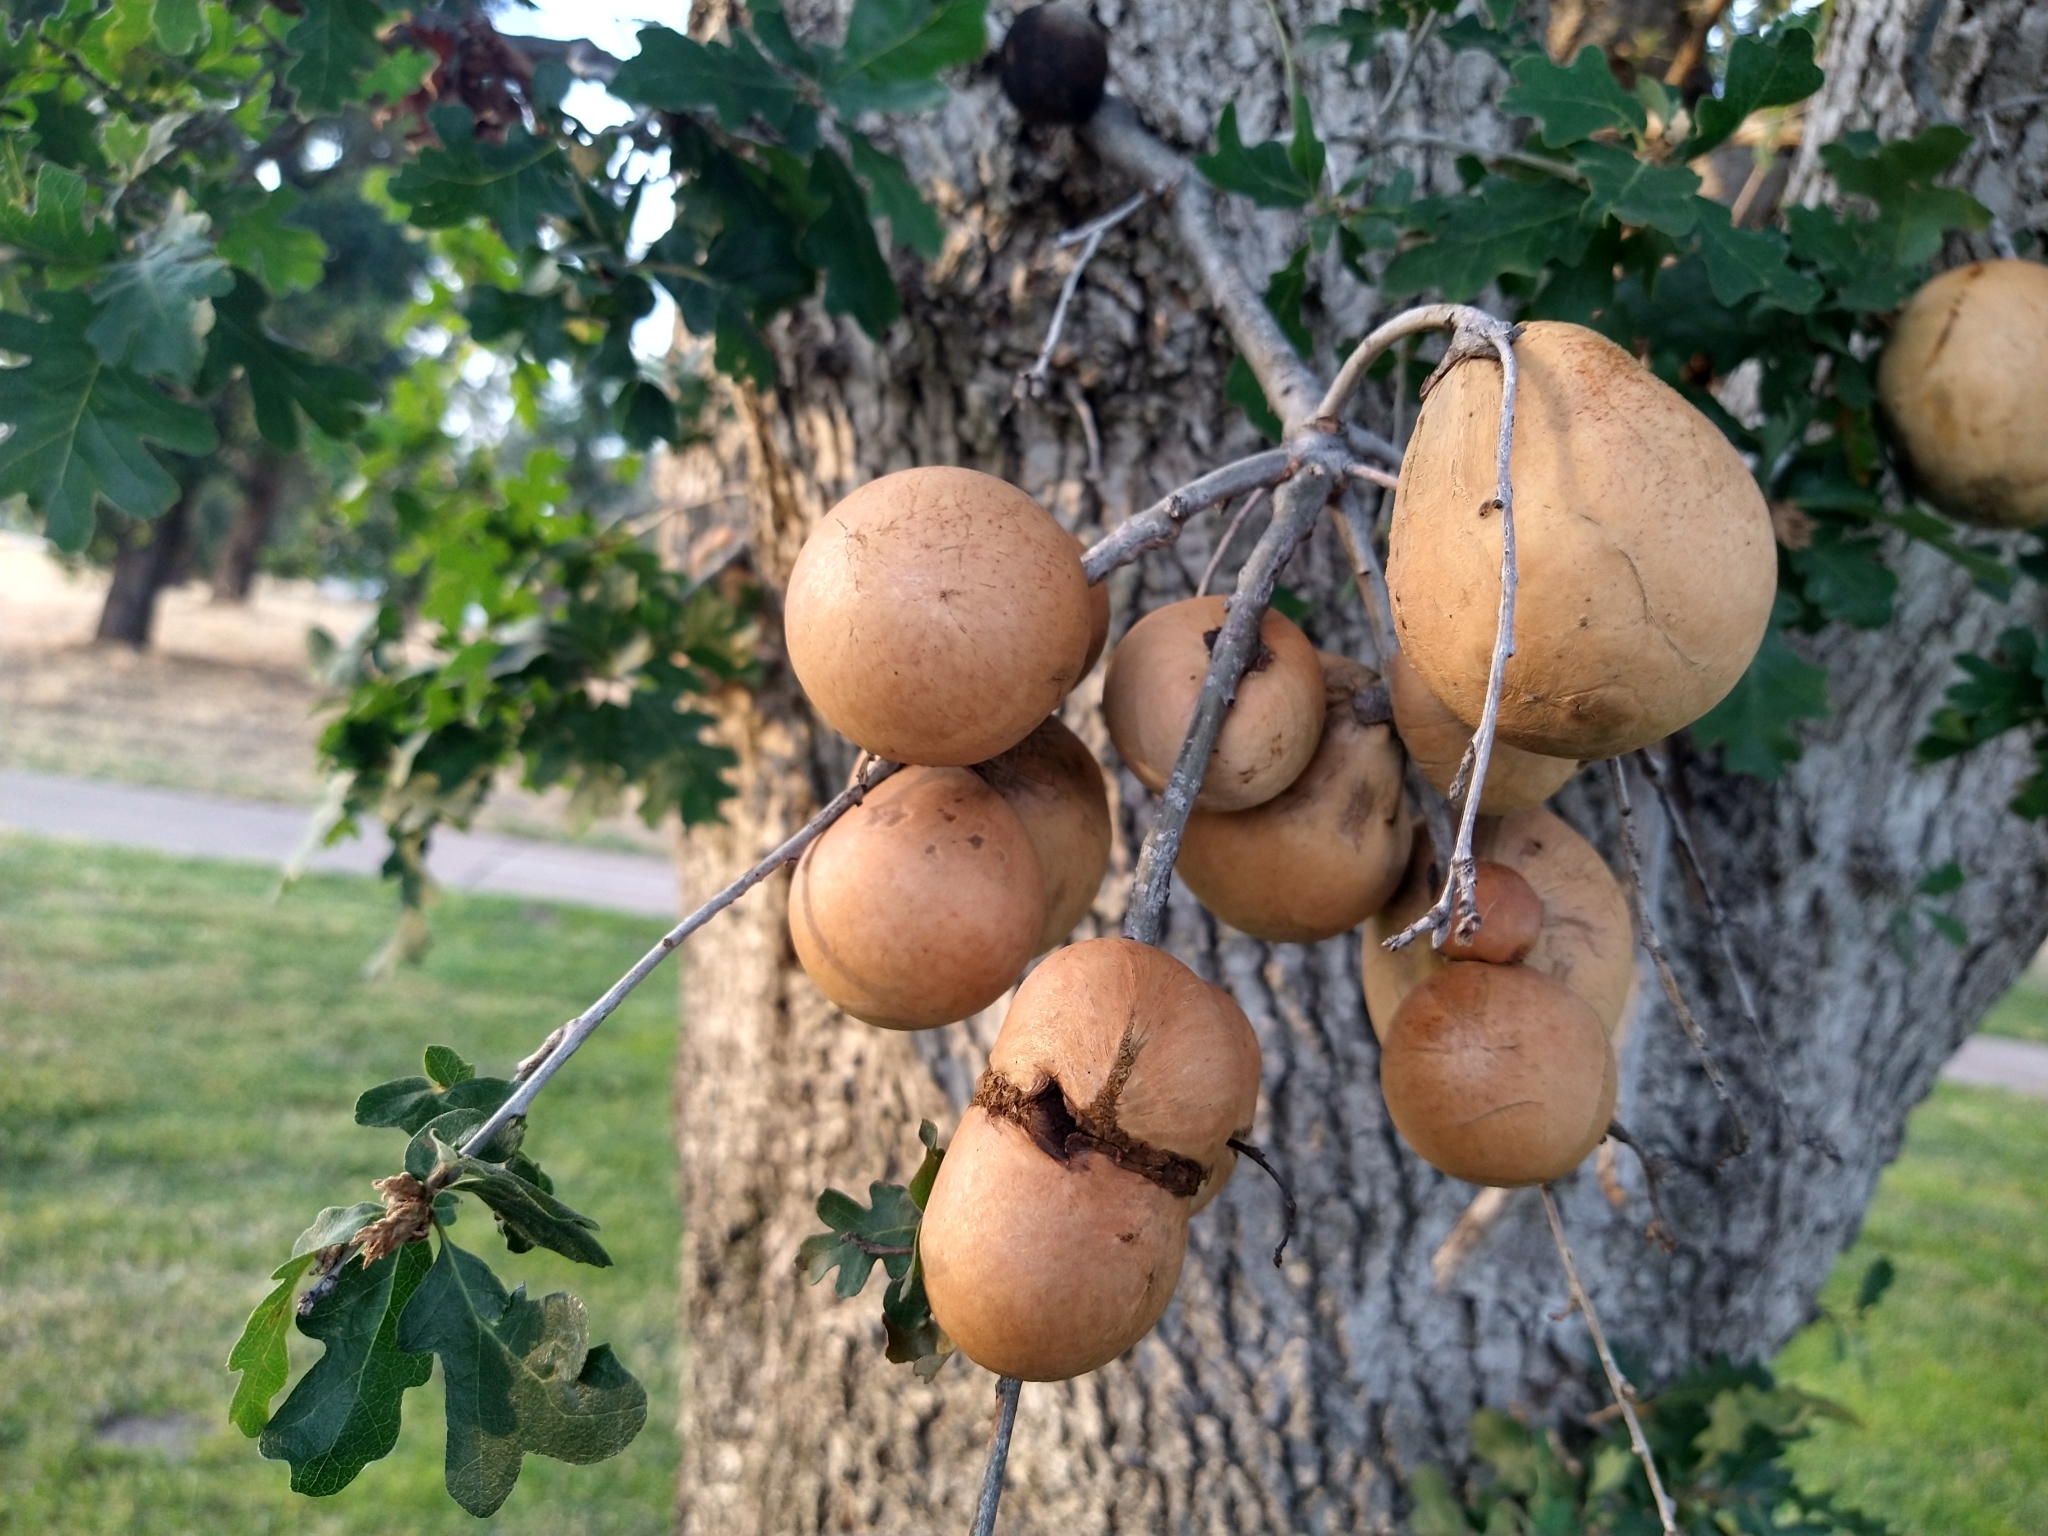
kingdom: Animalia
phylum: Arthropoda
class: Insecta
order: Hymenoptera
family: Cynipidae
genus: Andricus
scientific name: Andricus quercuscalifornicus
